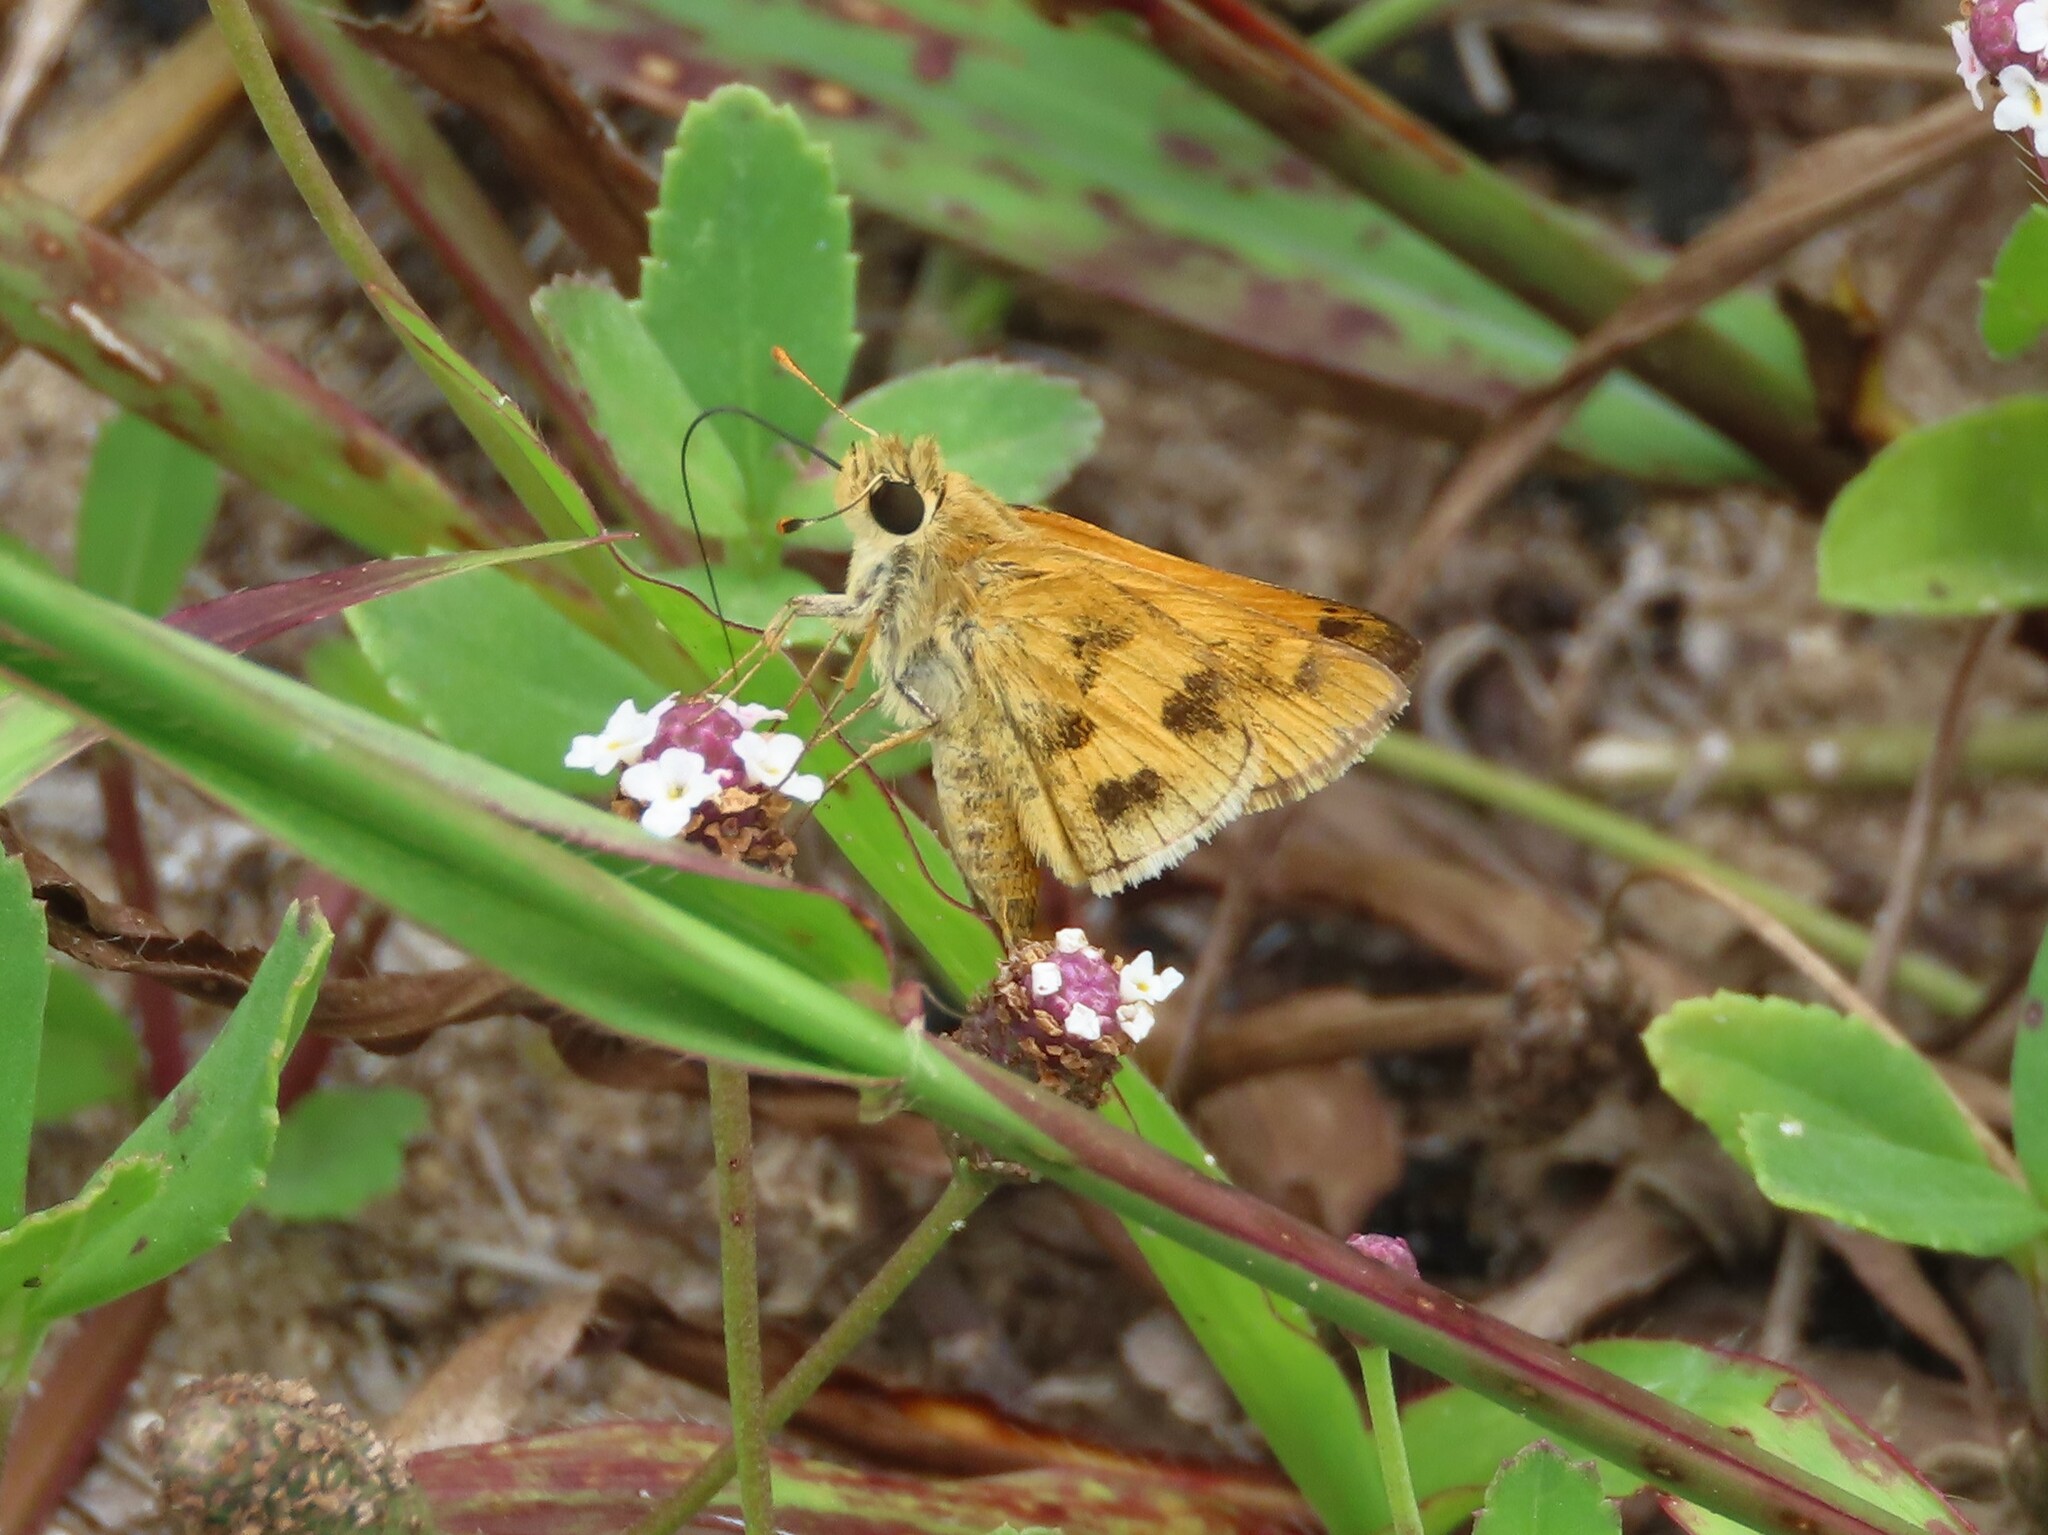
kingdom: Animalia
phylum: Arthropoda
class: Insecta
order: Lepidoptera
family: Hesperiidae
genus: Polites
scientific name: Polites vibex
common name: Whirlabout
